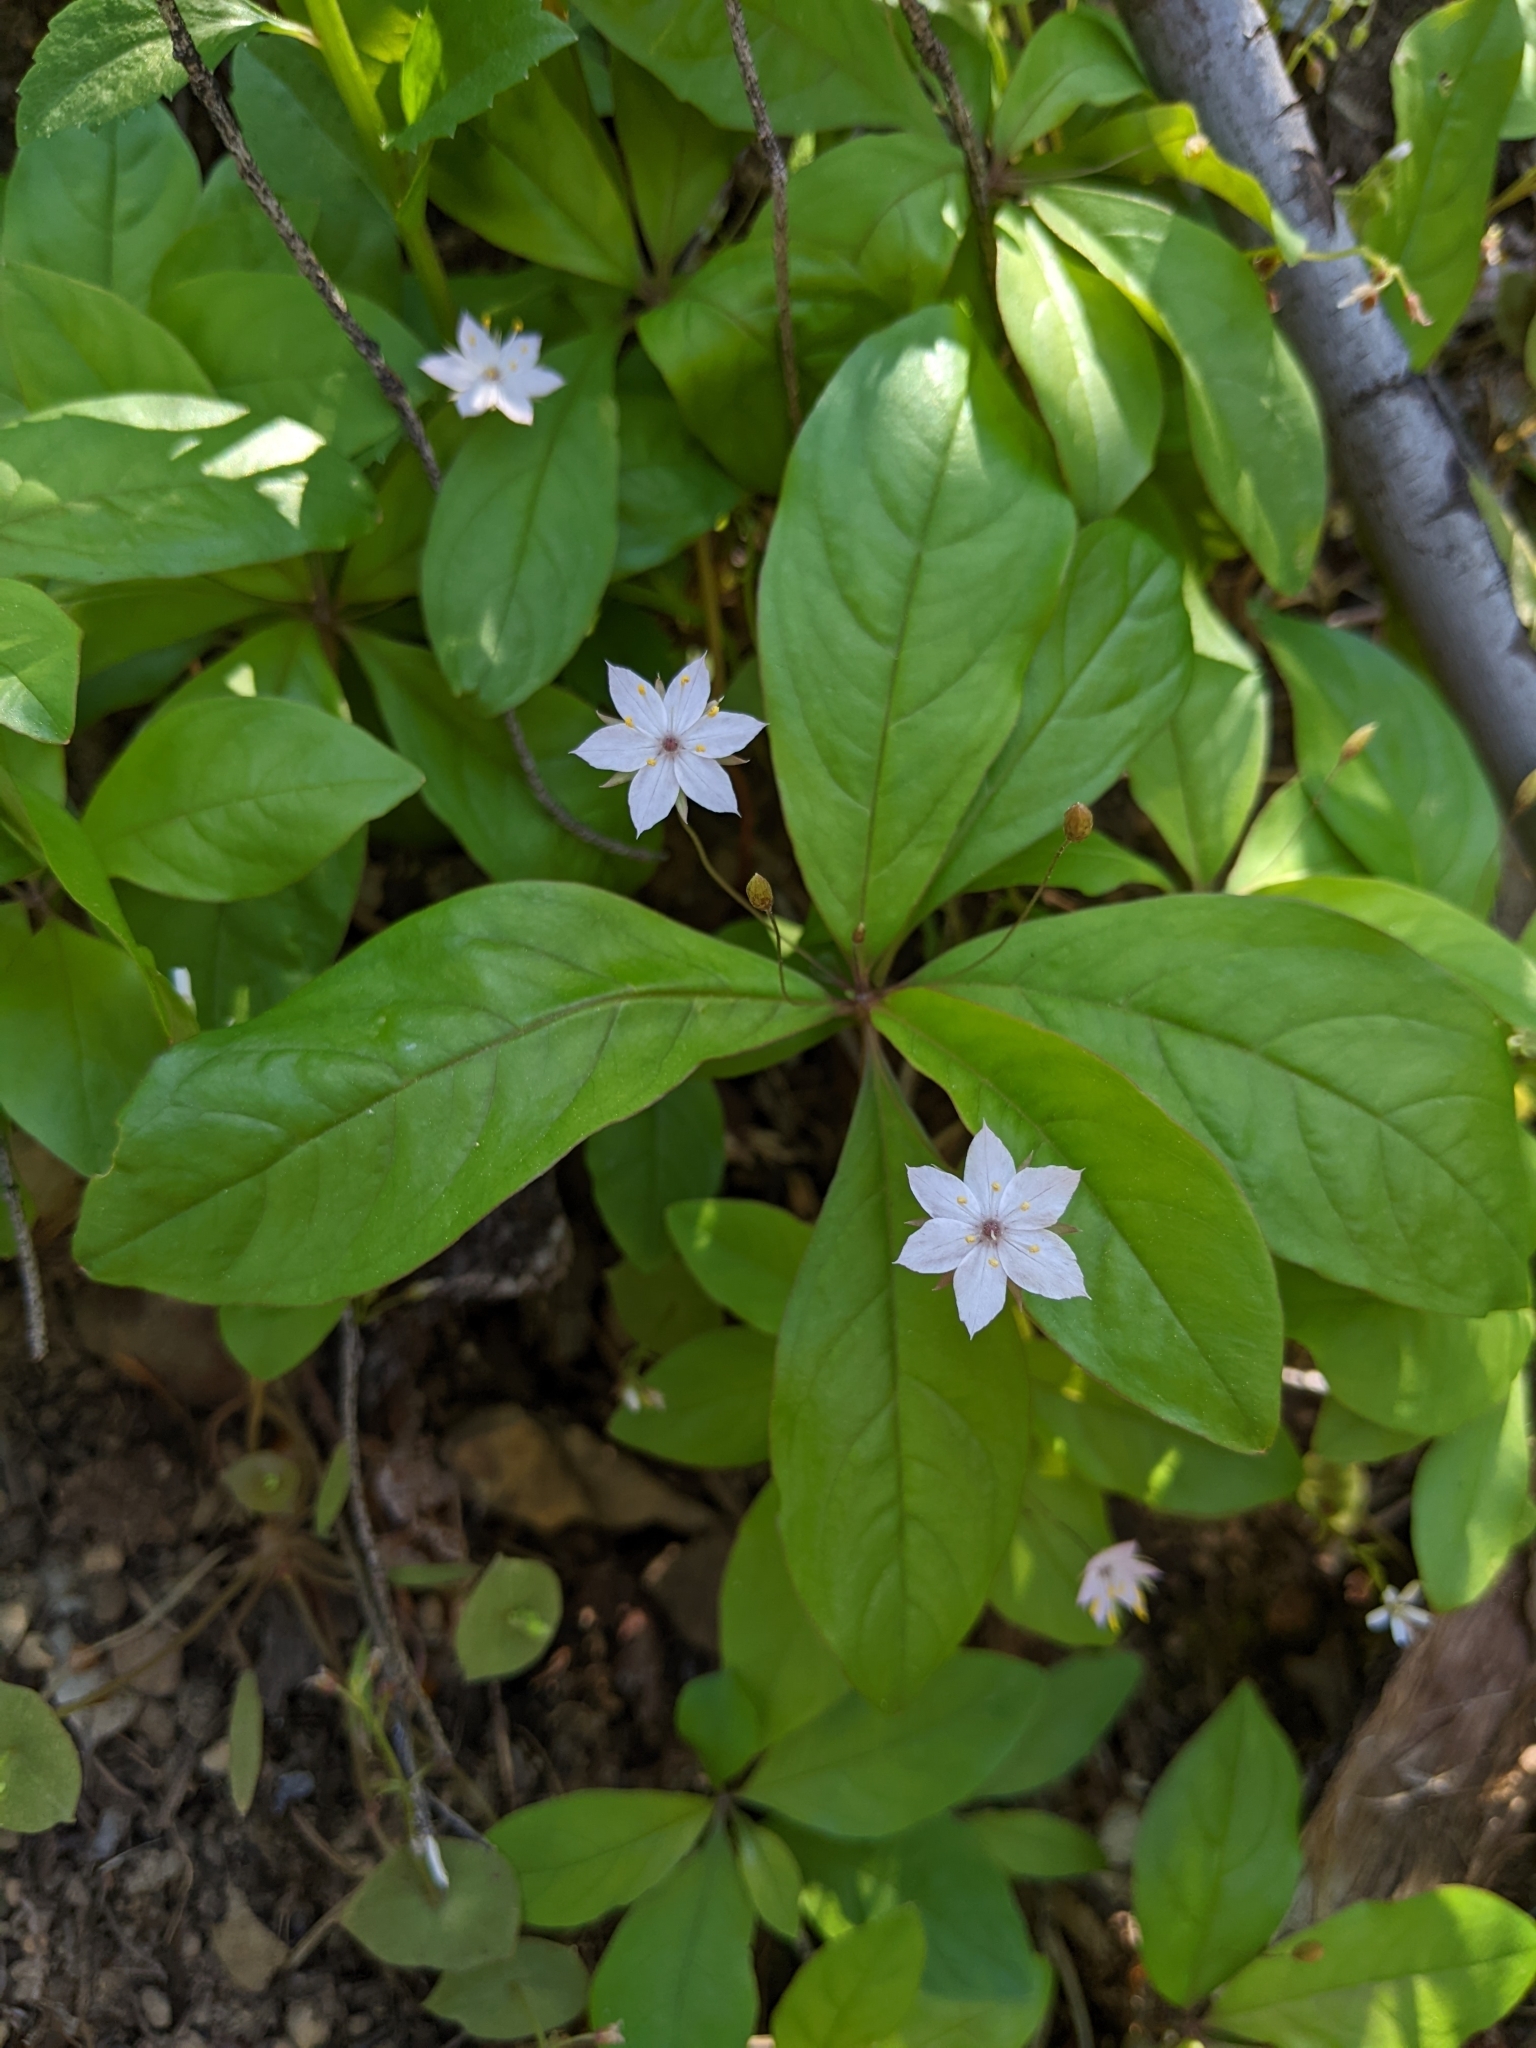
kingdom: Plantae
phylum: Tracheophyta
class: Magnoliopsida
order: Ericales
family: Primulaceae
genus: Lysimachia
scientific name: Lysimachia latifolia
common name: Pacific starflower
